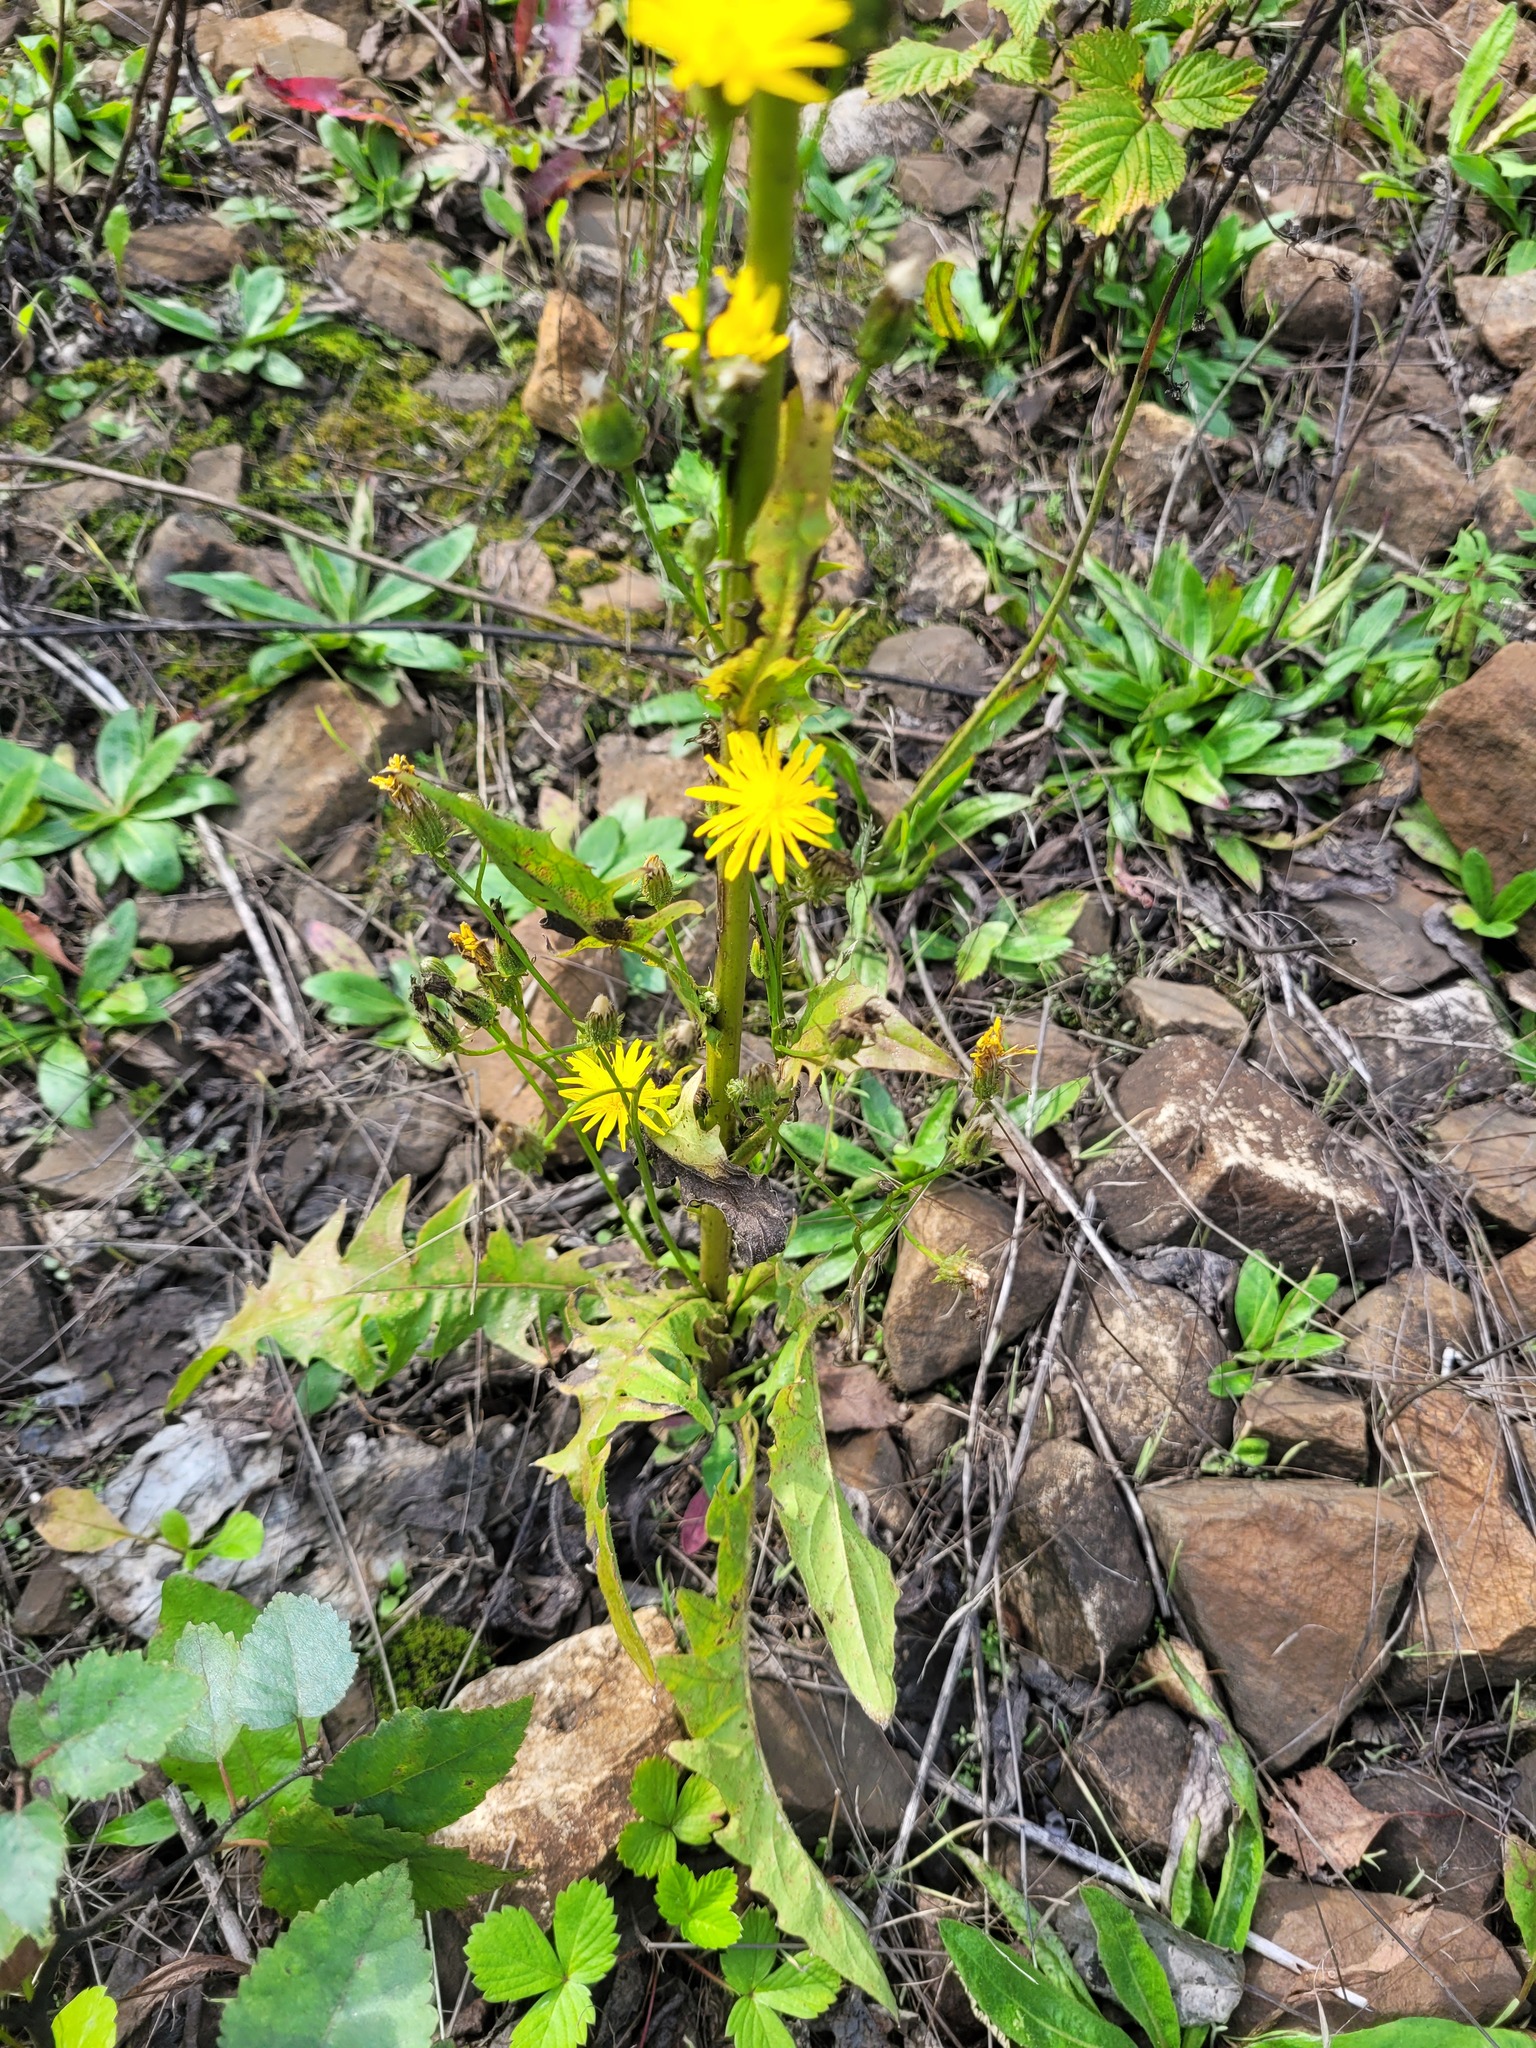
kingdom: Plantae
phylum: Tracheophyta
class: Magnoliopsida
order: Asterales
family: Asteraceae
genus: Crepis
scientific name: Crepis biennis
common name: Rough hawk's-beard
